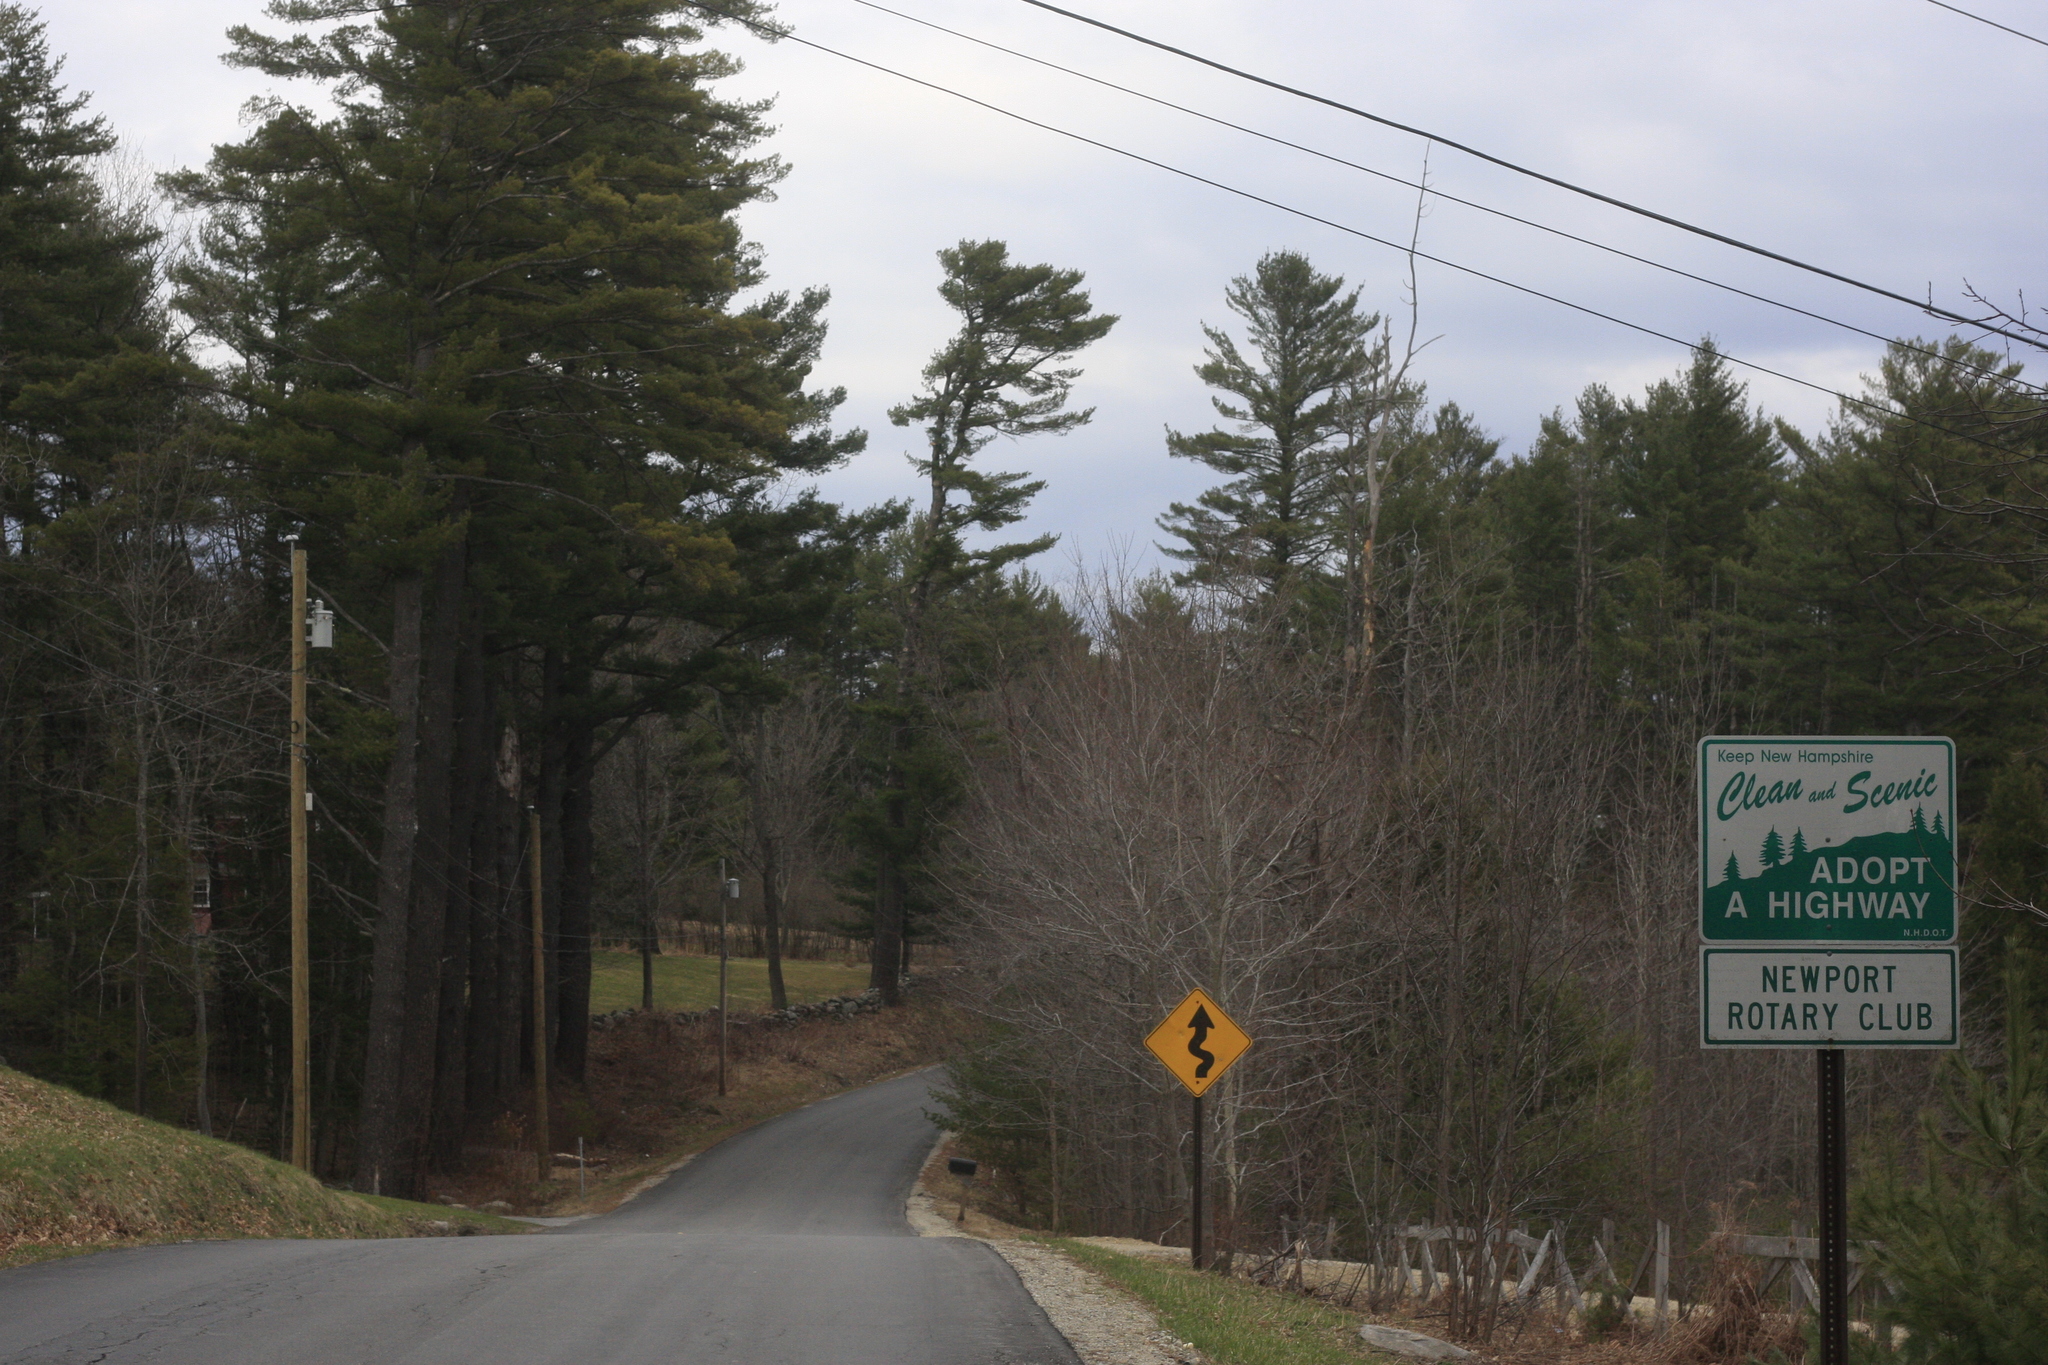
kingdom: Plantae
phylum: Tracheophyta
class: Pinopsida
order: Pinales
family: Pinaceae
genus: Pinus
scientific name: Pinus strobus
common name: Weymouth pine
